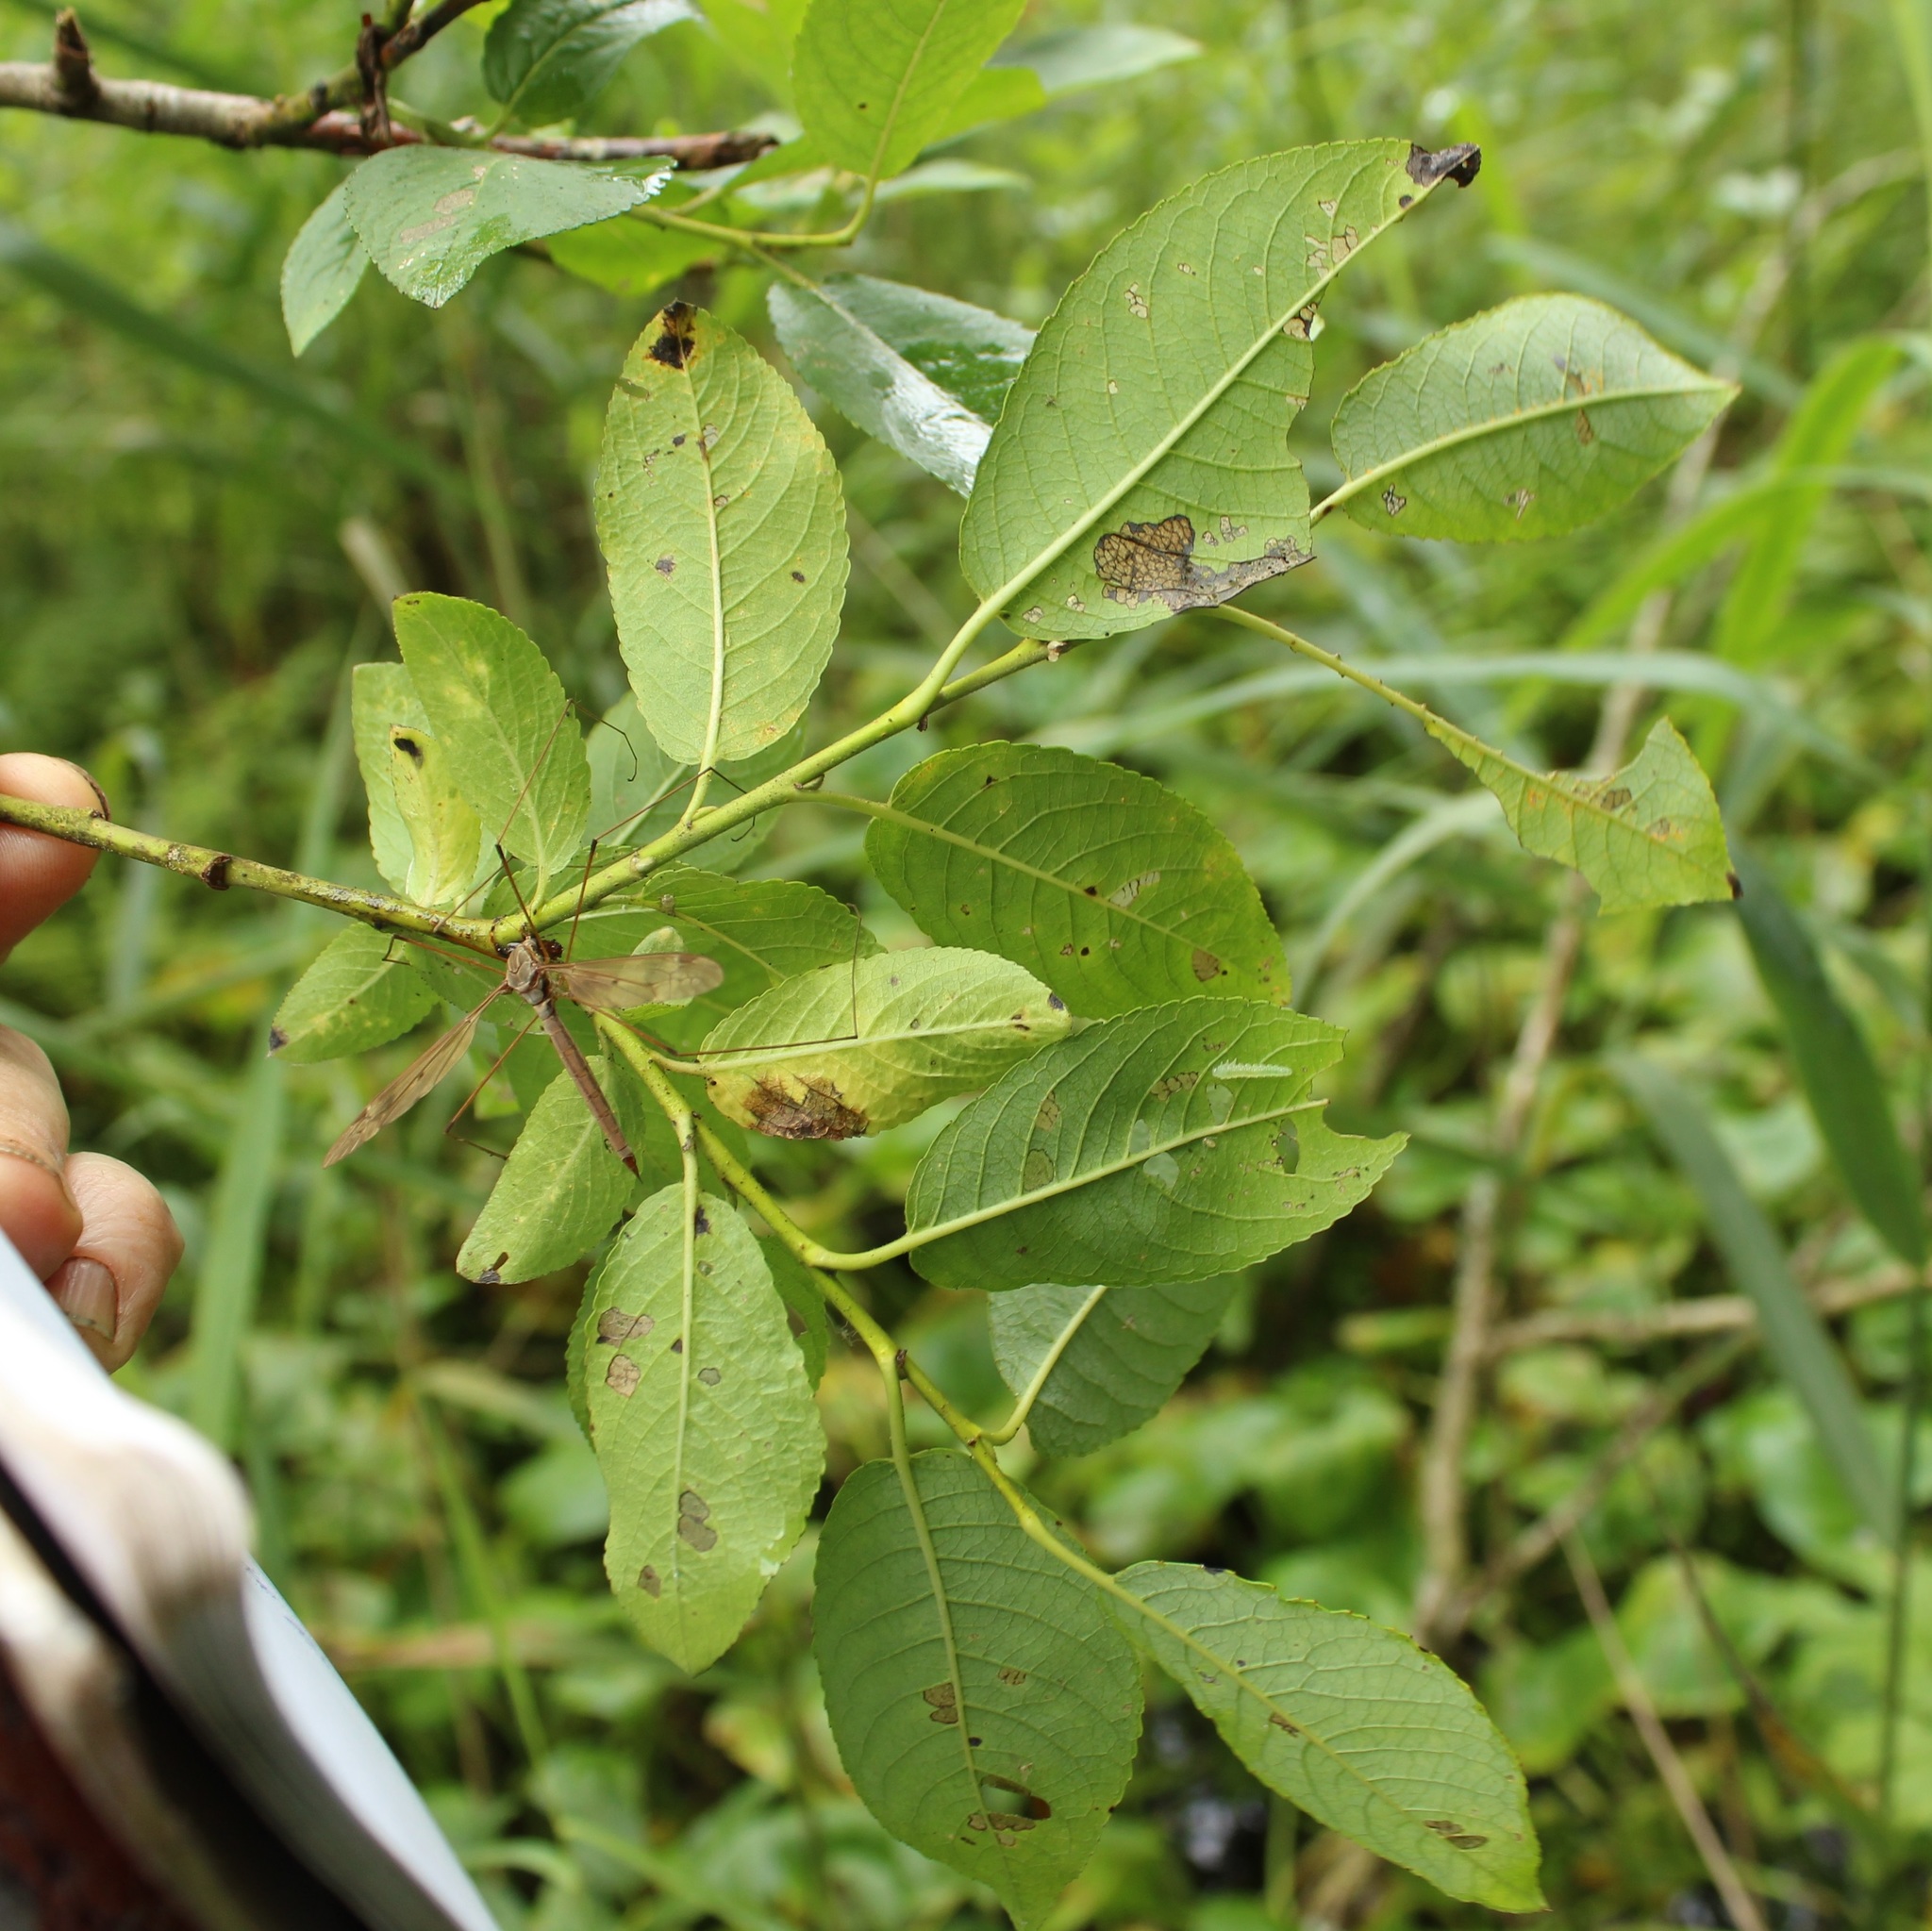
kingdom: Plantae
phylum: Tracheophyta
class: Magnoliopsida
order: Malpighiales
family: Salicaceae
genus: Salix
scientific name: Salix myrsinifolia
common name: Dark-leaved willow
